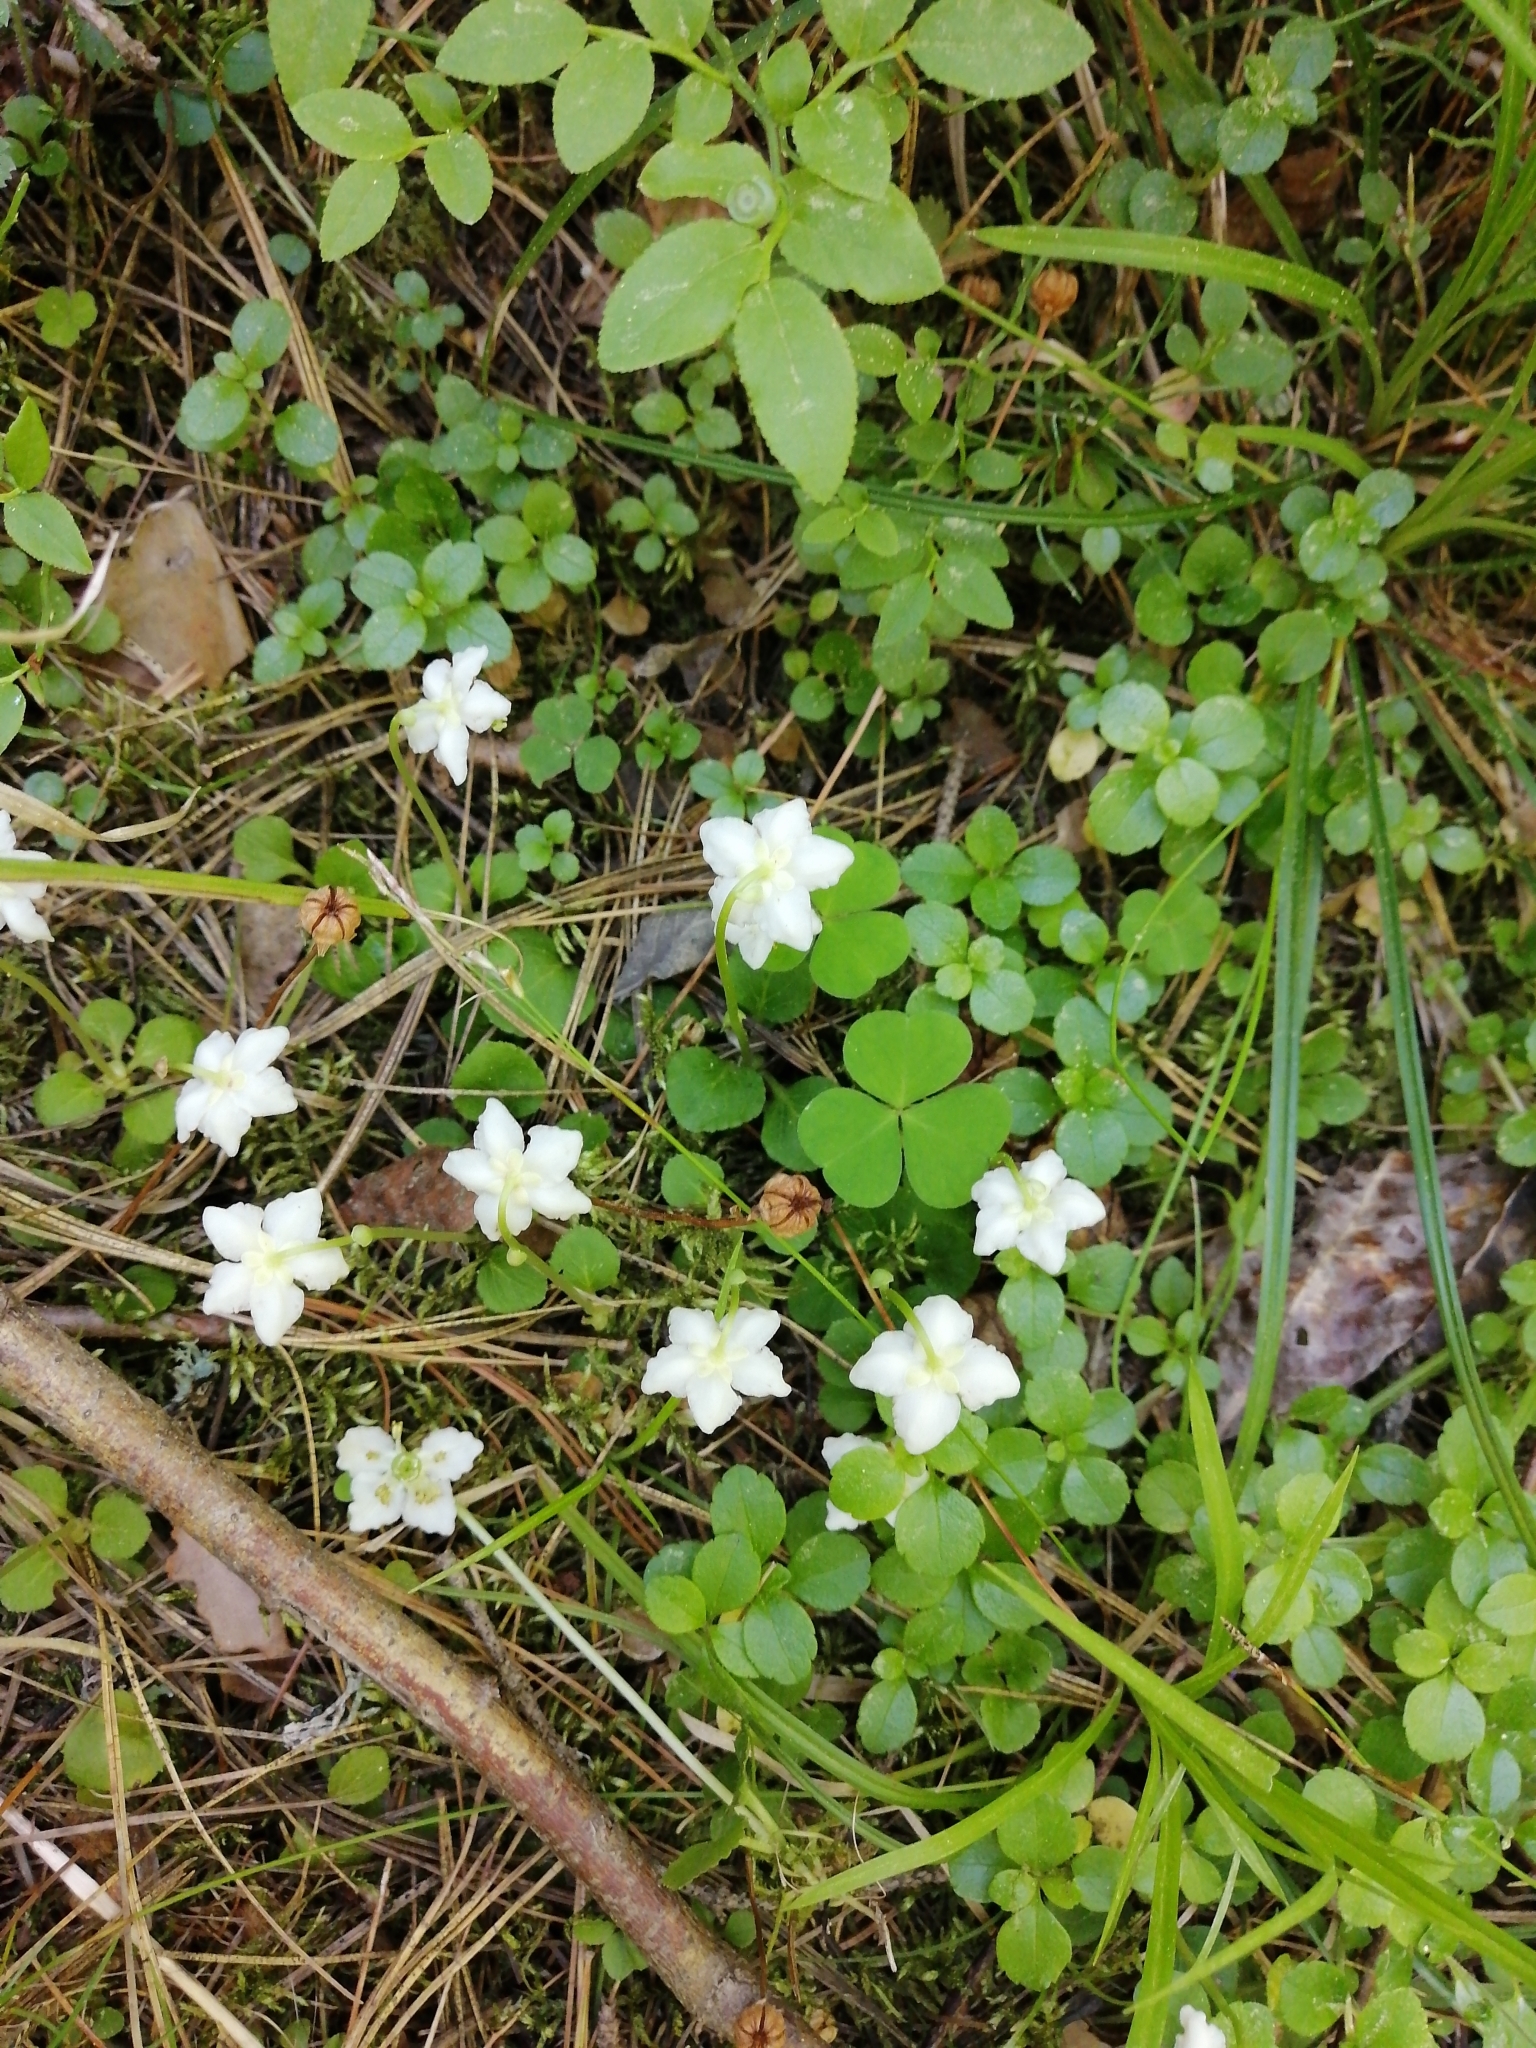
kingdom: Plantae
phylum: Tracheophyta
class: Magnoliopsida
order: Ericales
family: Ericaceae
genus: Moneses
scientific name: Moneses uniflora
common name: One-flowered wintergreen
